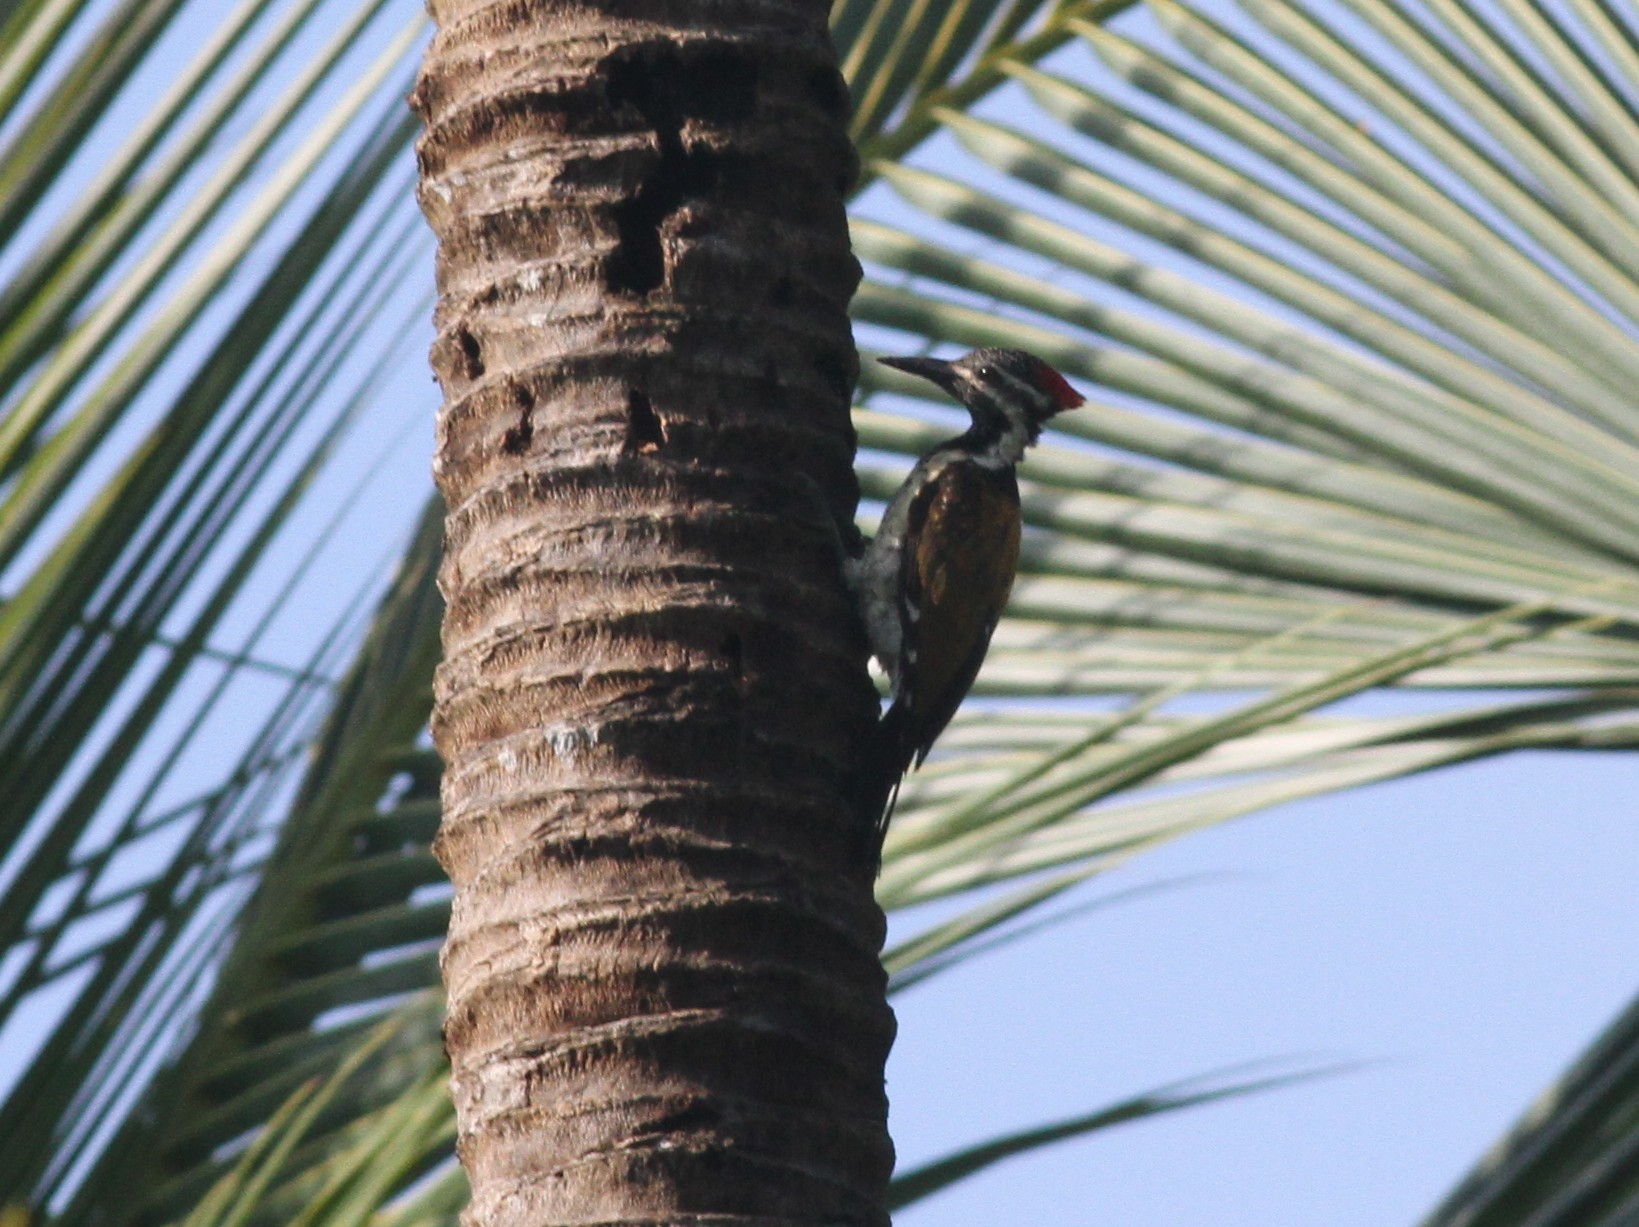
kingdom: Animalia
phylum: Chordata
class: Aves
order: Piciformes
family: Picidae
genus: Dinopium
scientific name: Dinopium benghalense
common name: Black-rumped flameback
